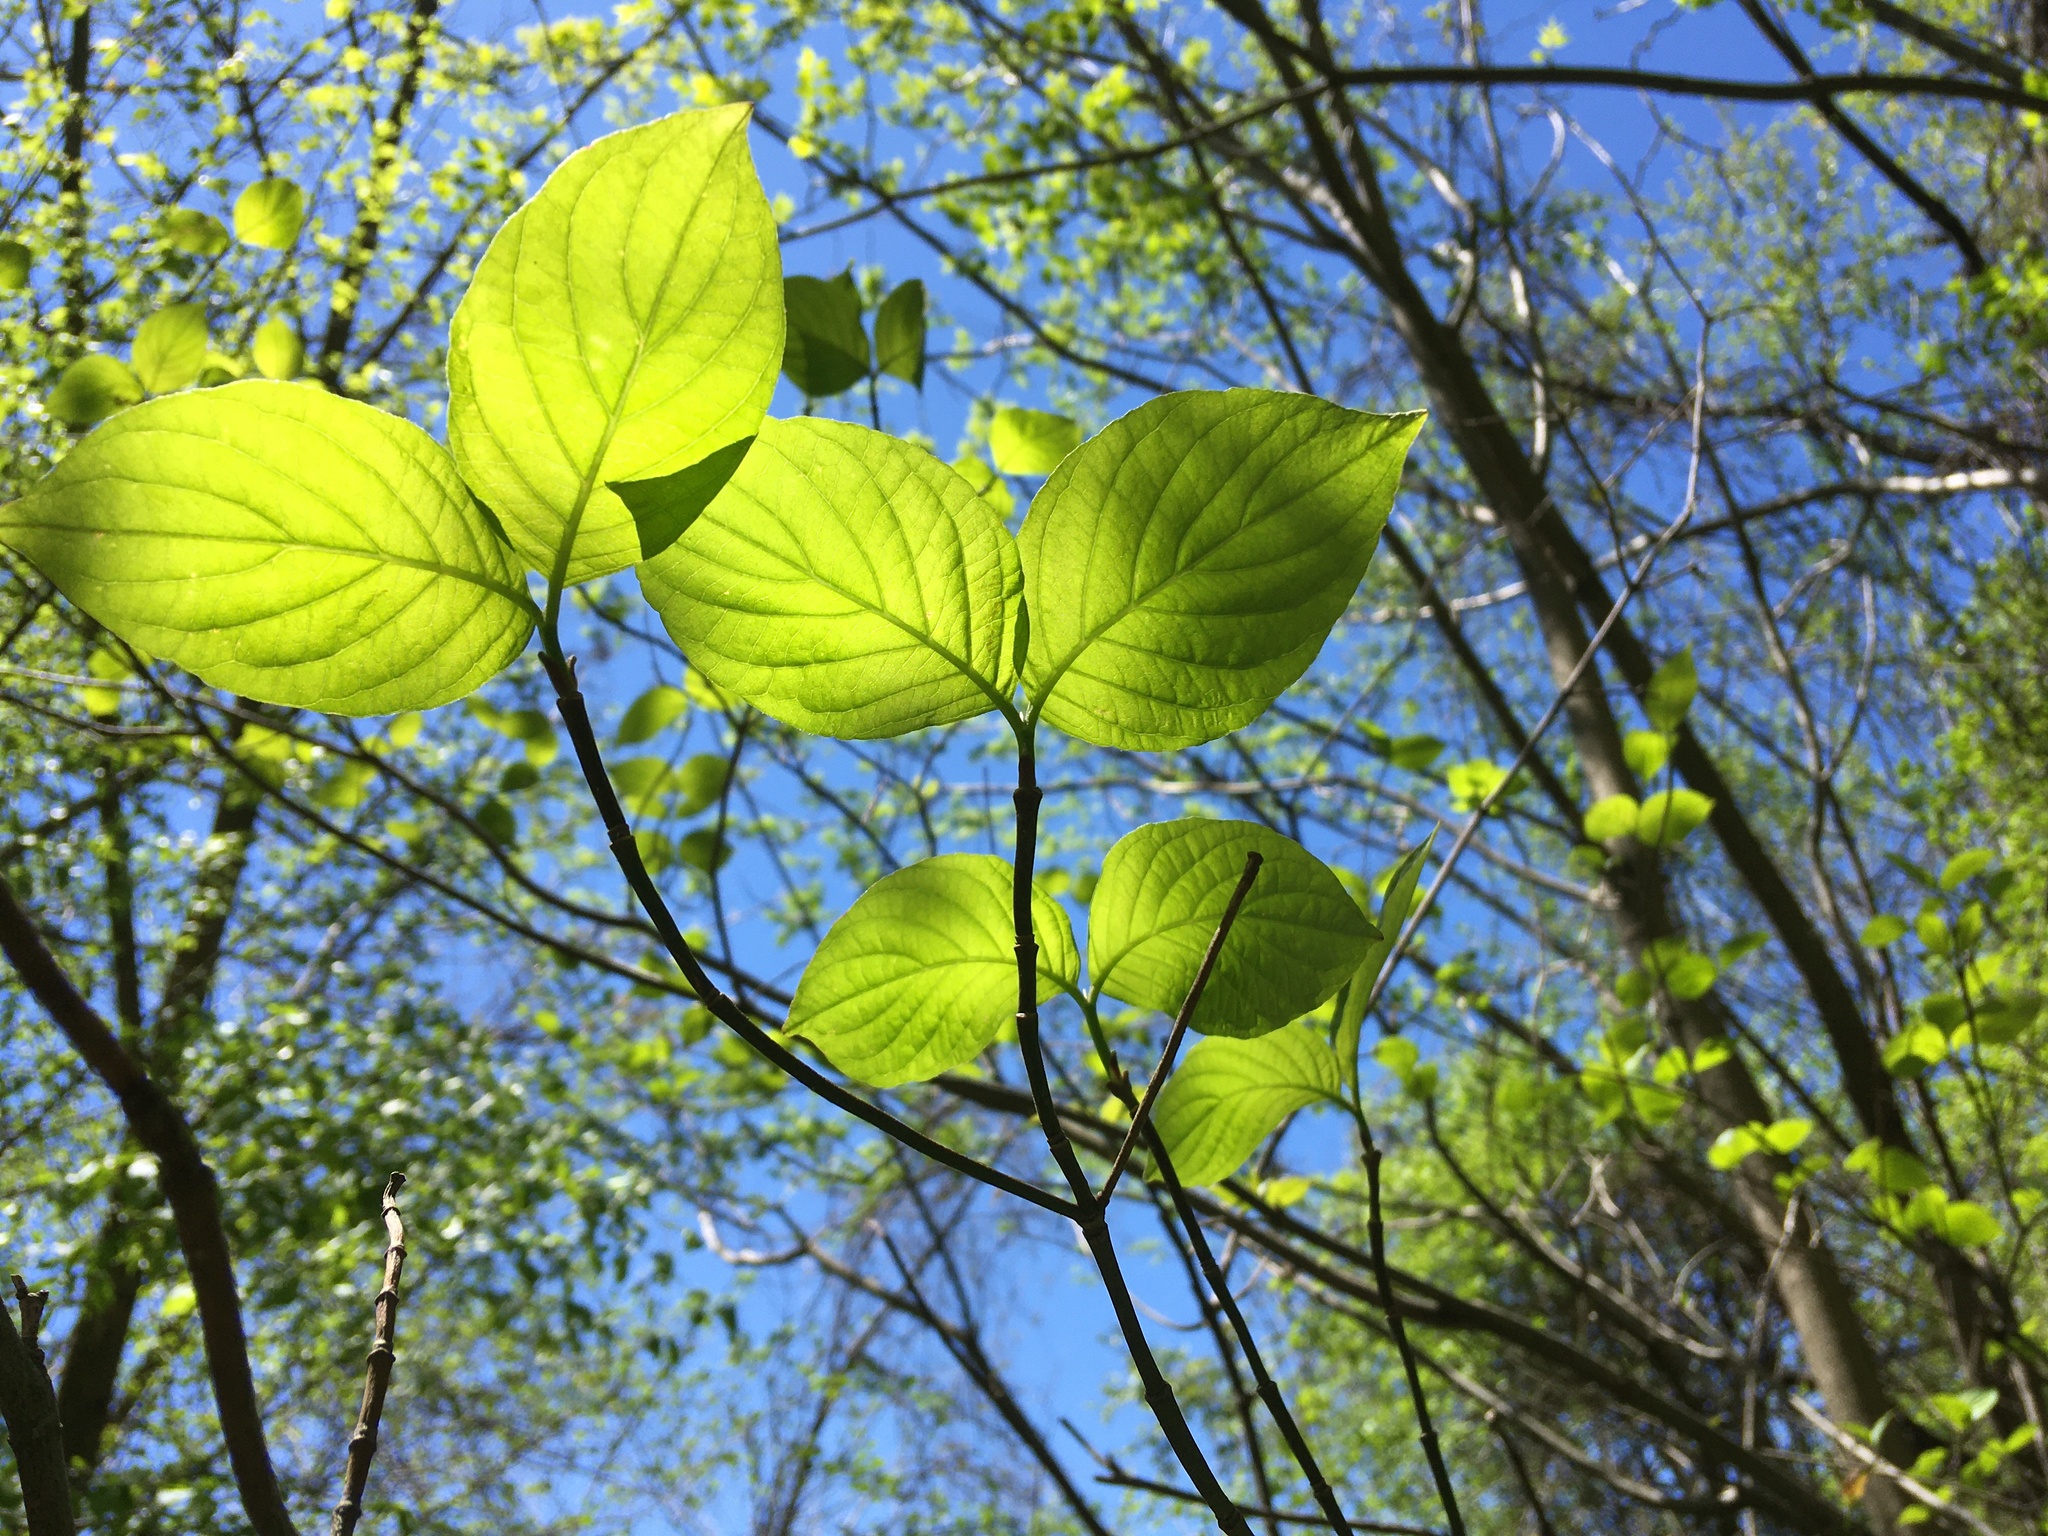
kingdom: Plantae
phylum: Tracheophyta
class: Magnoliopsida
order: Cornales
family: Cornaceae
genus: Cornus
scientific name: Cornus florida
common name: Flowering dogwood
